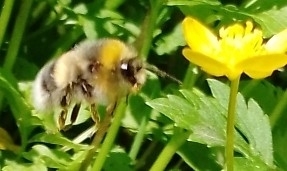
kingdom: Animalia
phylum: Arthropoda
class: Insecta
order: Hymenoptera
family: Apidae
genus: Bombus
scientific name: Bombus lucorum
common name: White-tailed bumblebee
